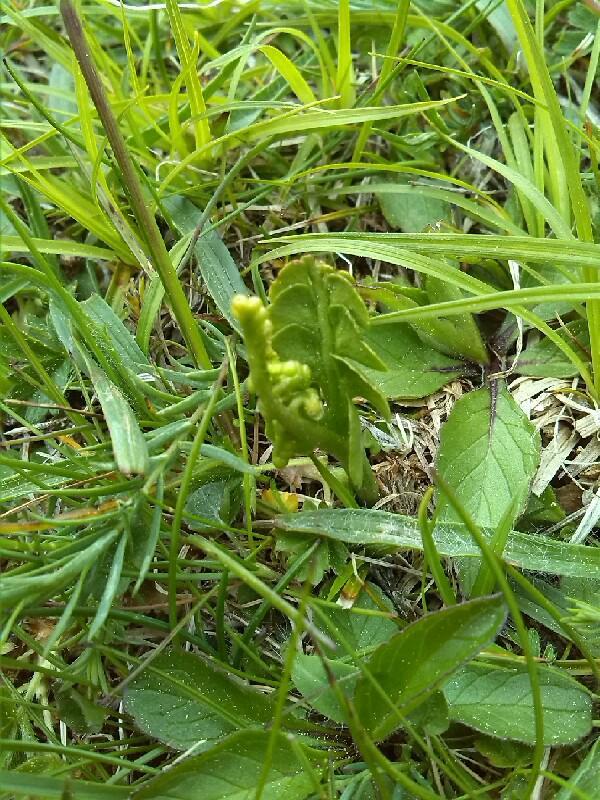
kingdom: Plantae
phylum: Tracheophyta
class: Polypodiopsida
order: Ophioglossales
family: Ophioglossaceae
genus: Botrychium
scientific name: Botrychium lunaria
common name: Moonwort
